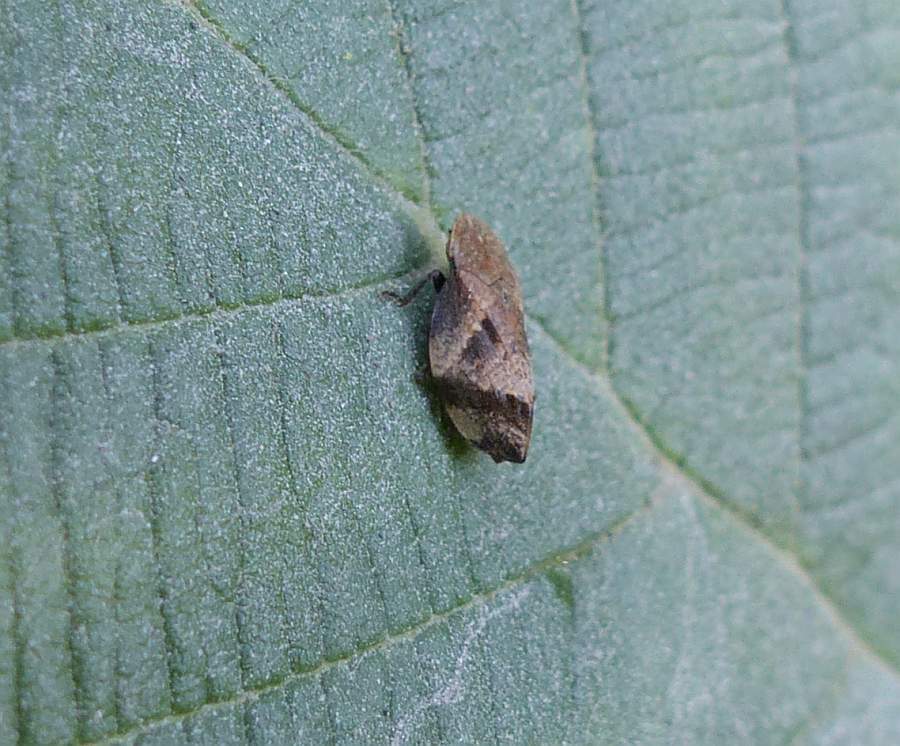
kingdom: Animalia
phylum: Arthropoda
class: Insecta
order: Hemiptera
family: Aphrophoridae
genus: Lepyronia
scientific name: Lepyronia quadrangularis
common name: Diamond-backed spittlebug
